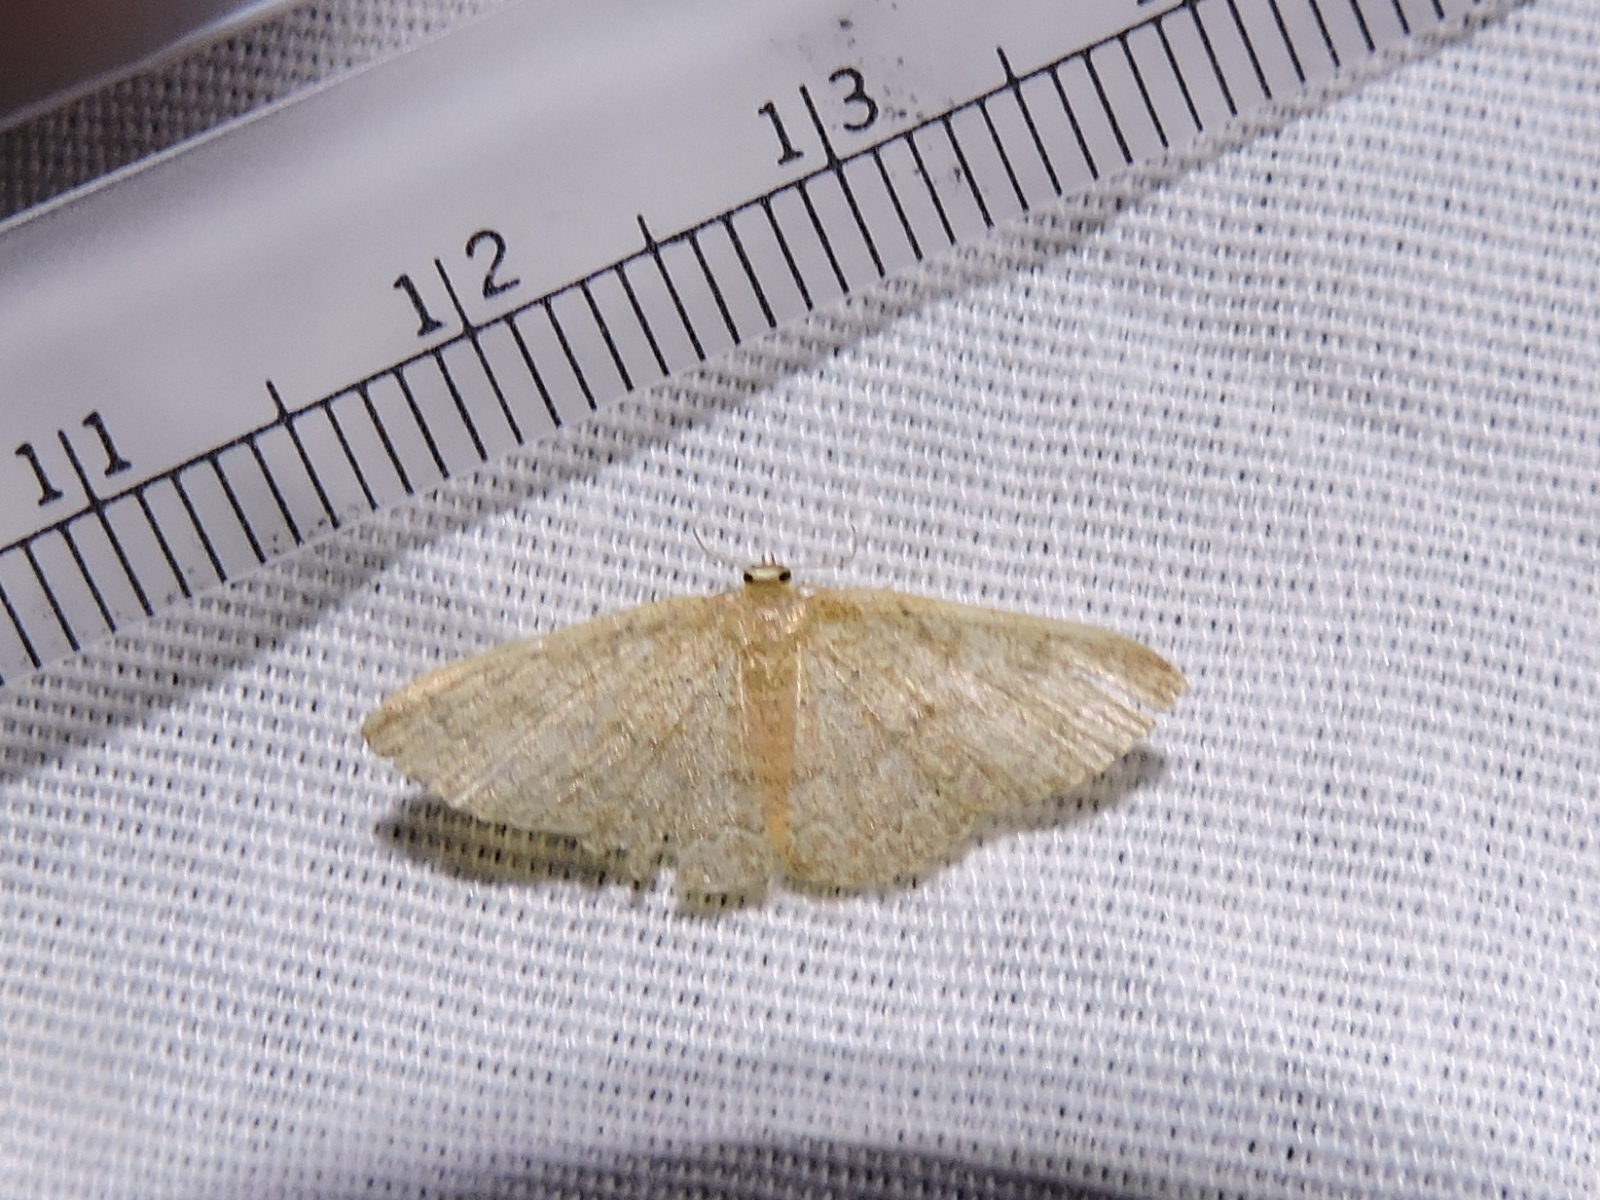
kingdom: Animalia
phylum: Arthropoda
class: Insecta
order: Lepidoptera
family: Geometridae
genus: Pleuroprucha
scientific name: Pleuroprucha insulsaria
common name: Common tan wave
